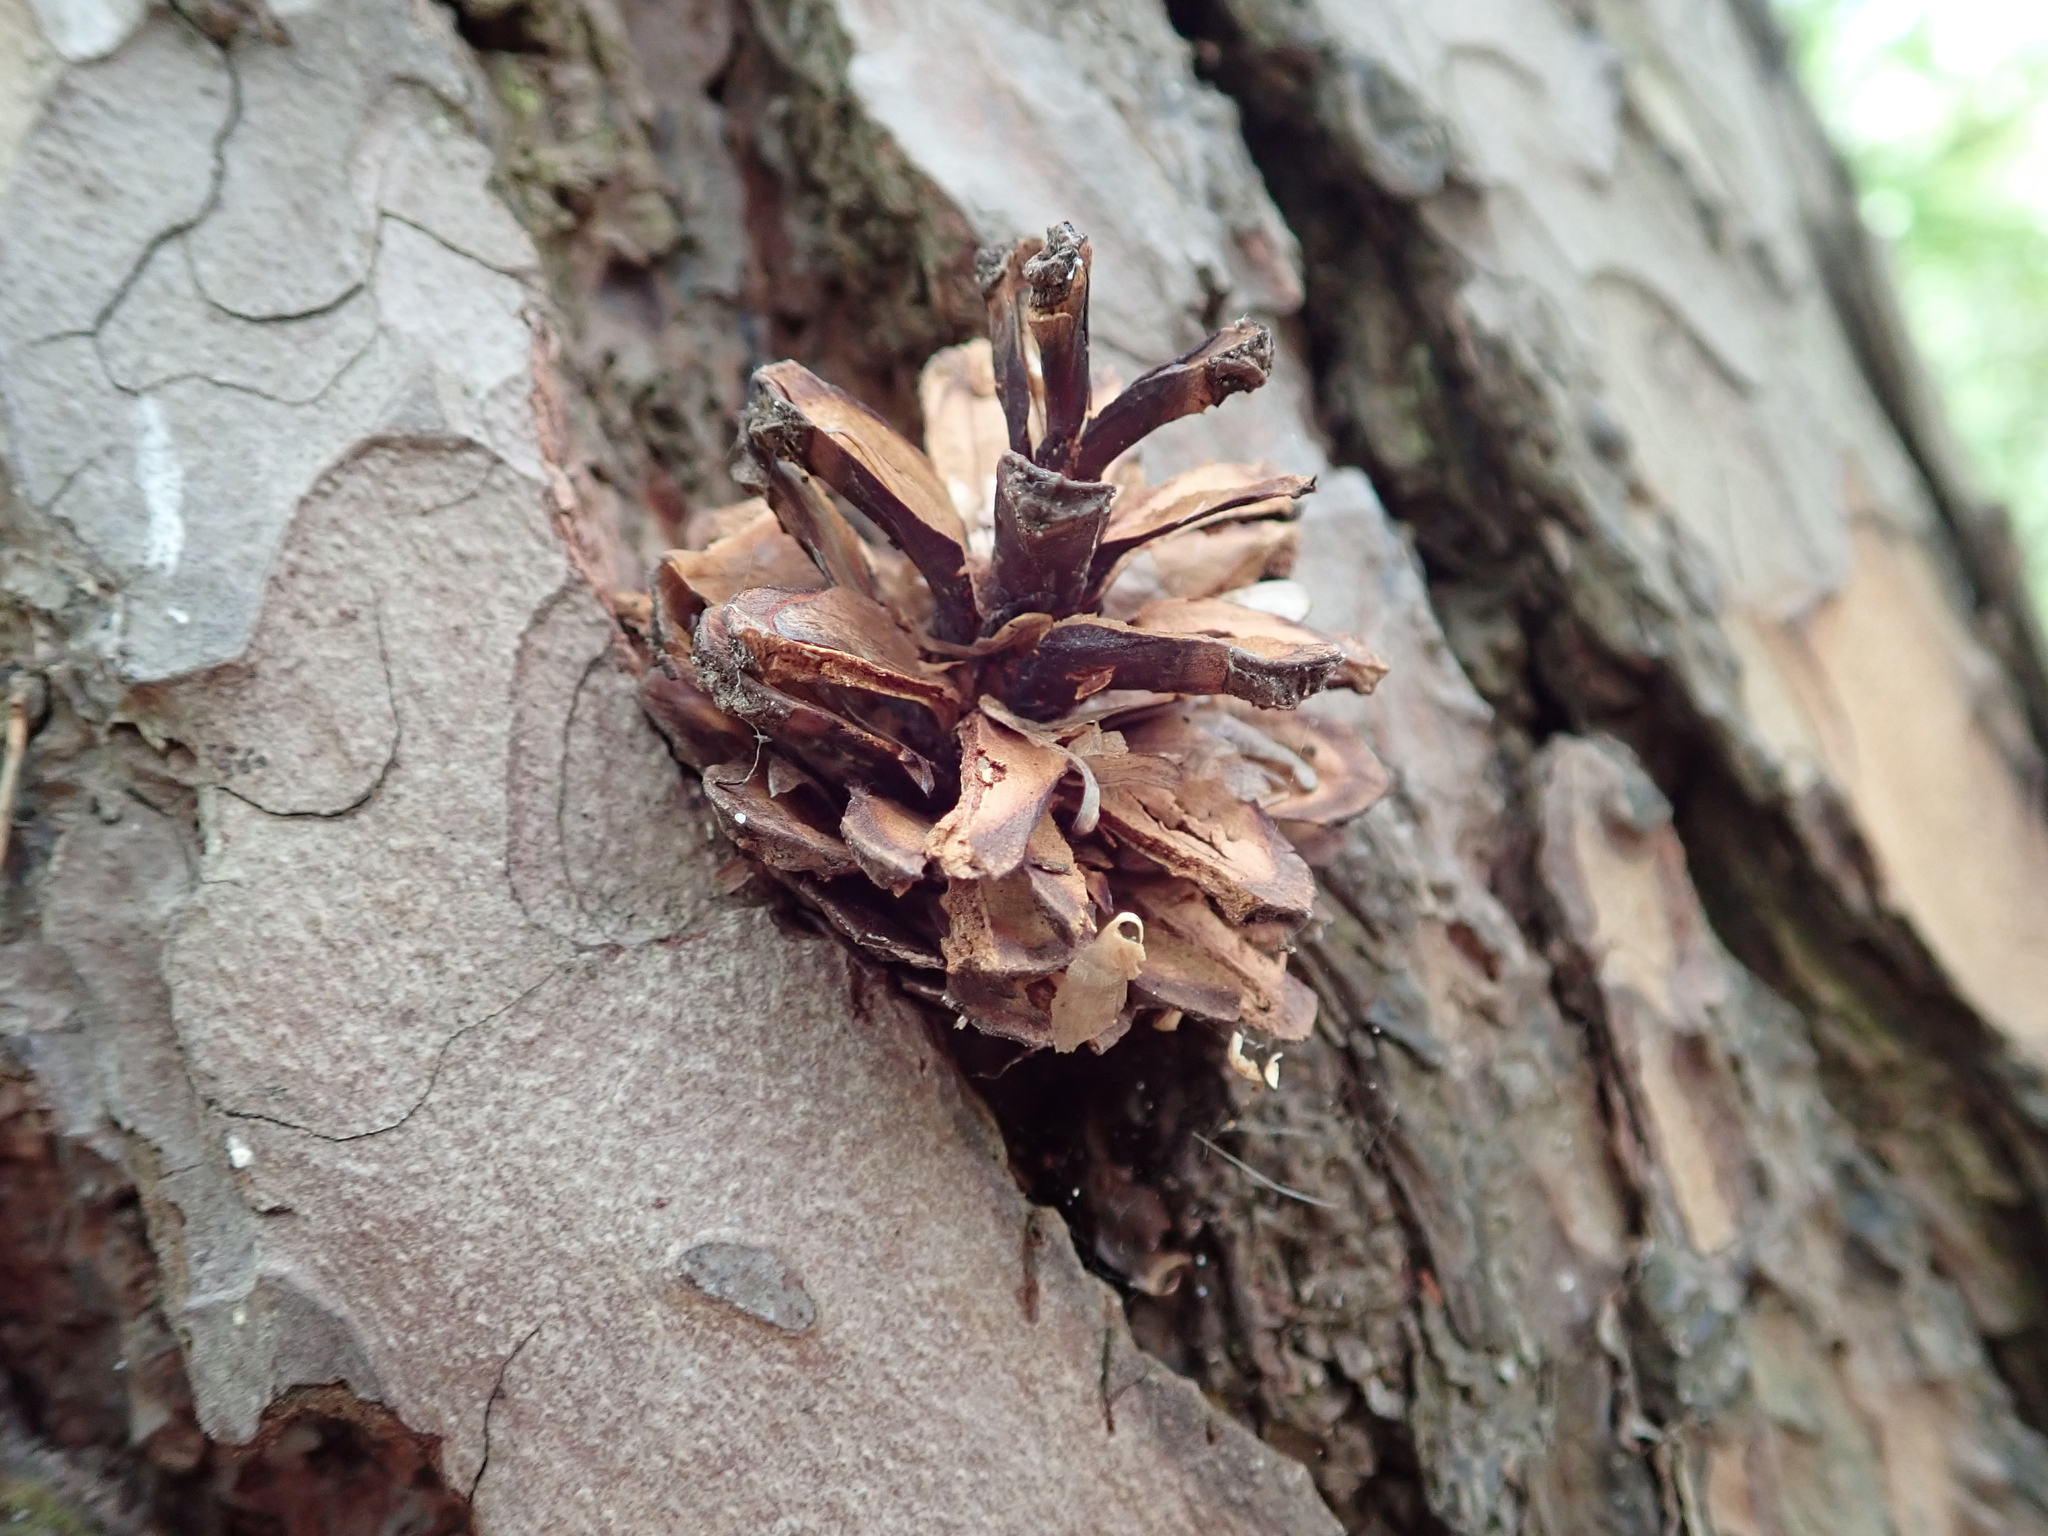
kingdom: Animalia
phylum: Chordata
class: Aves
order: Piciformes
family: Picidae
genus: Dendrocopos
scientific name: Dendrocopos major
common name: Great spotted woodpecker
